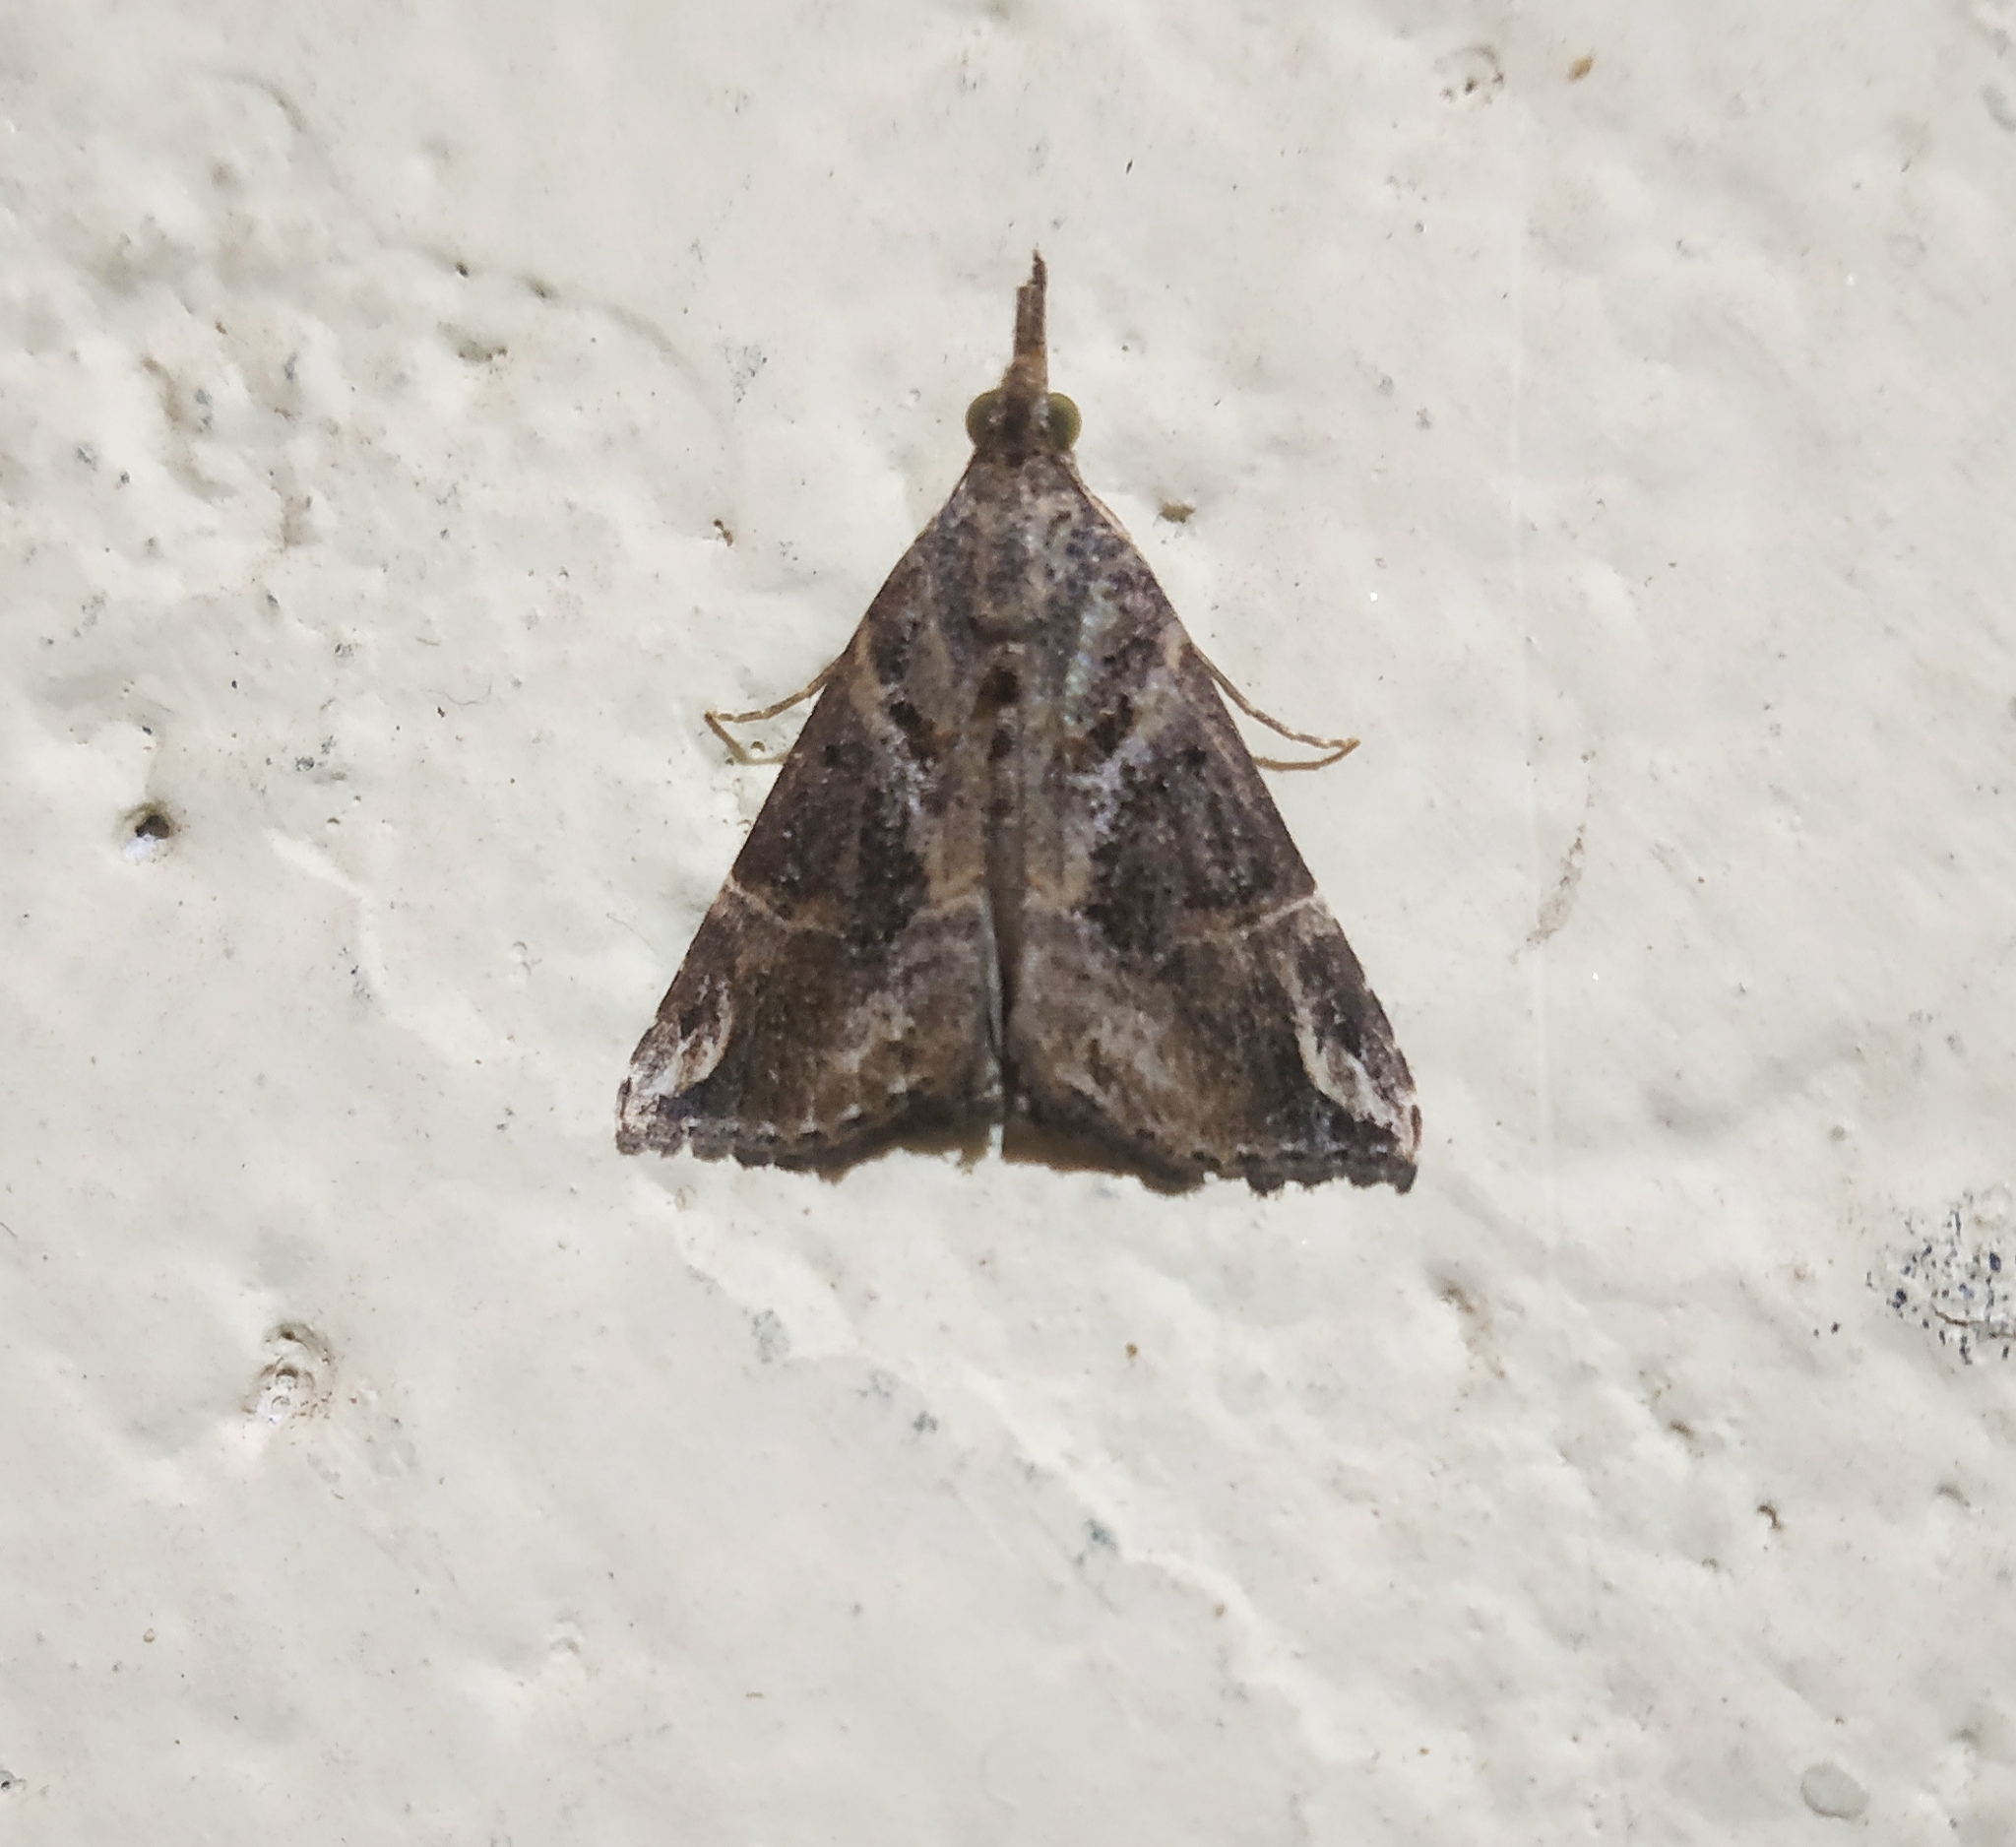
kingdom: Animalia
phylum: Arthropoda
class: Insecta
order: Lepidoptera
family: Erebidae
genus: Hypena
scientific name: Hypena commixtalis
